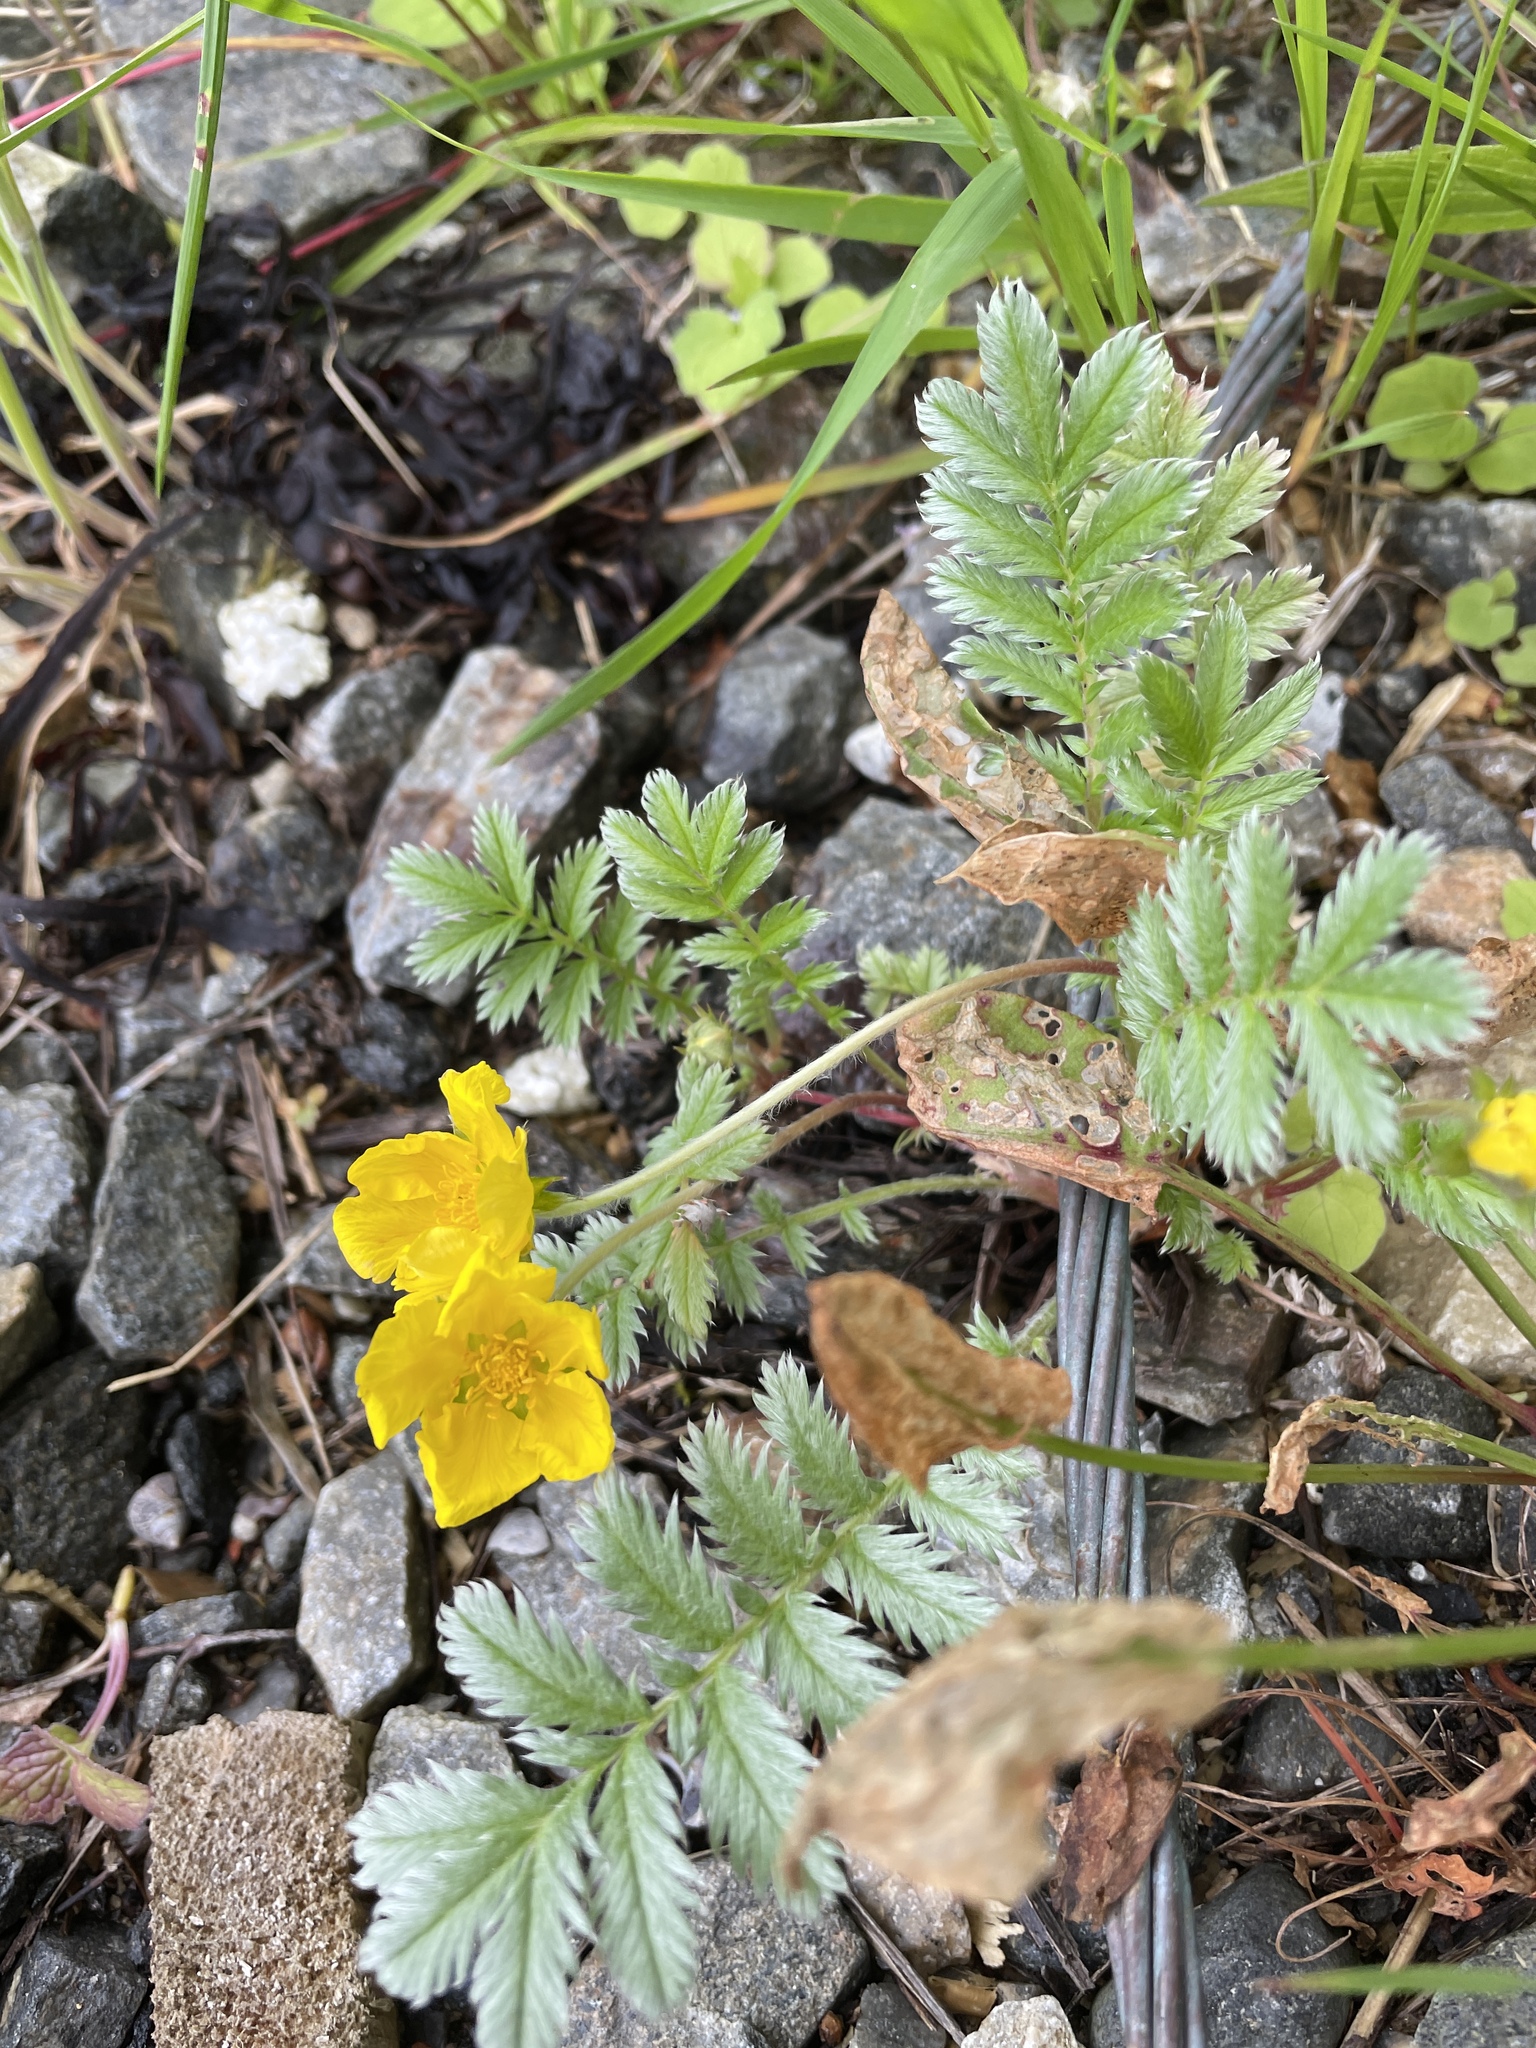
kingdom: Plantae
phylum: Tracheophyta
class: Magnoliopsida
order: Rosales
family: Rosaceae
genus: Argentina
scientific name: Argentina anserina
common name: Common silverweed
